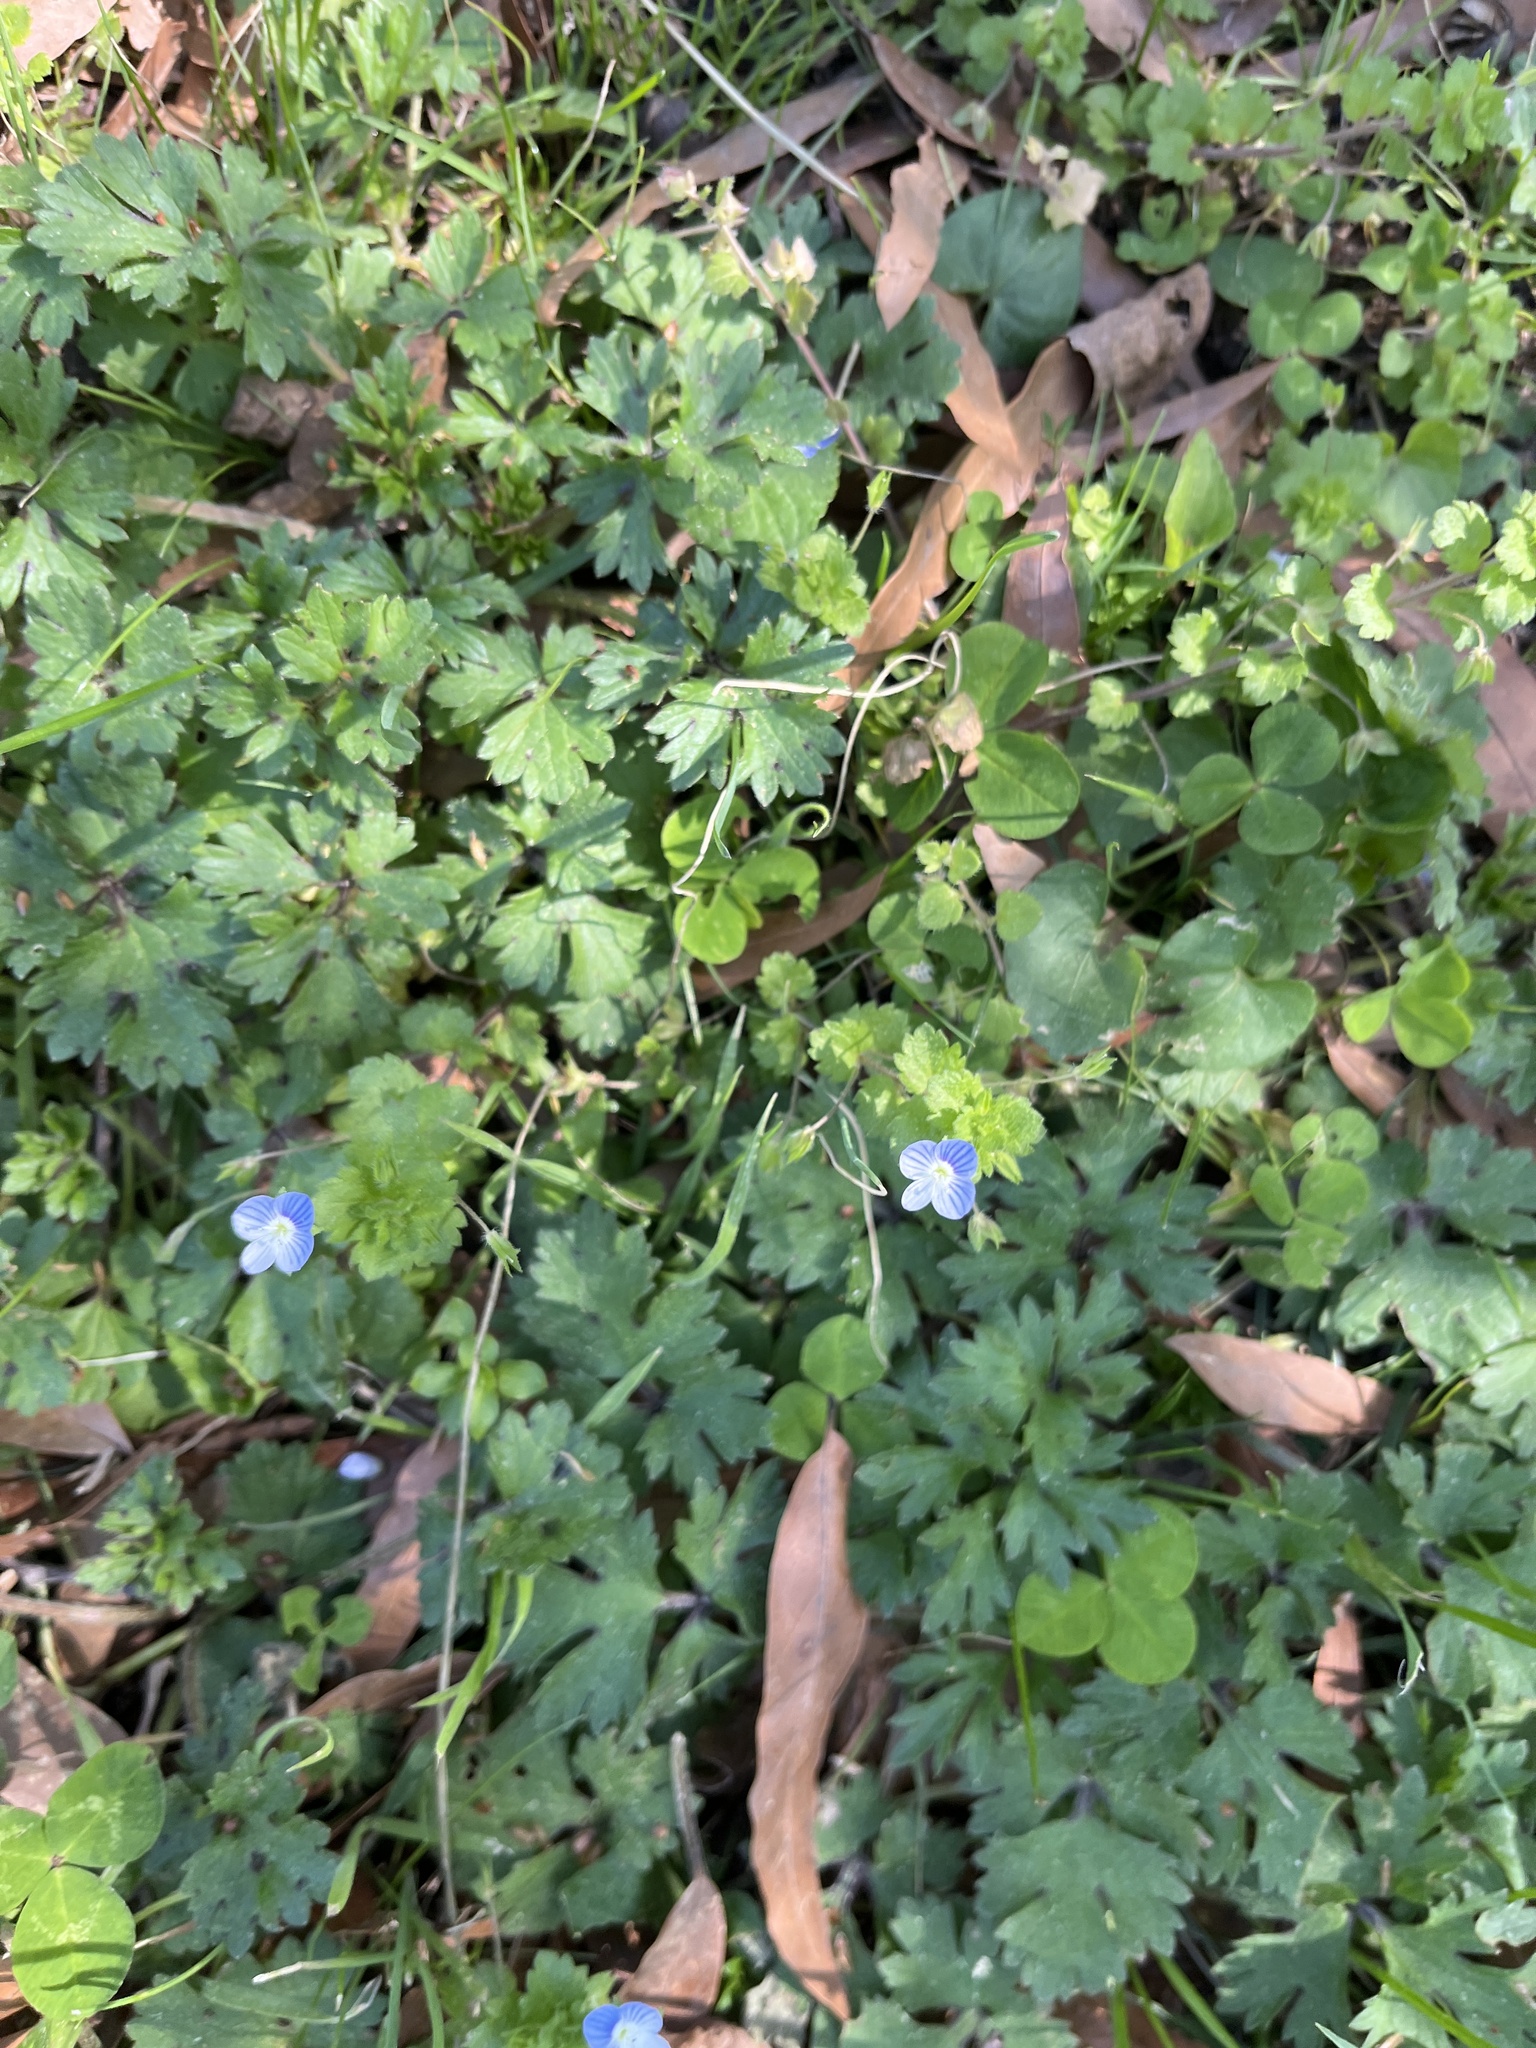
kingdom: Plantae
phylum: Tracheophyta
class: Magnoliopsida
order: Lamiales
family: Plantaginaceae
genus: Veronica
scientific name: Veronica persica
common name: Common field-speedwell
